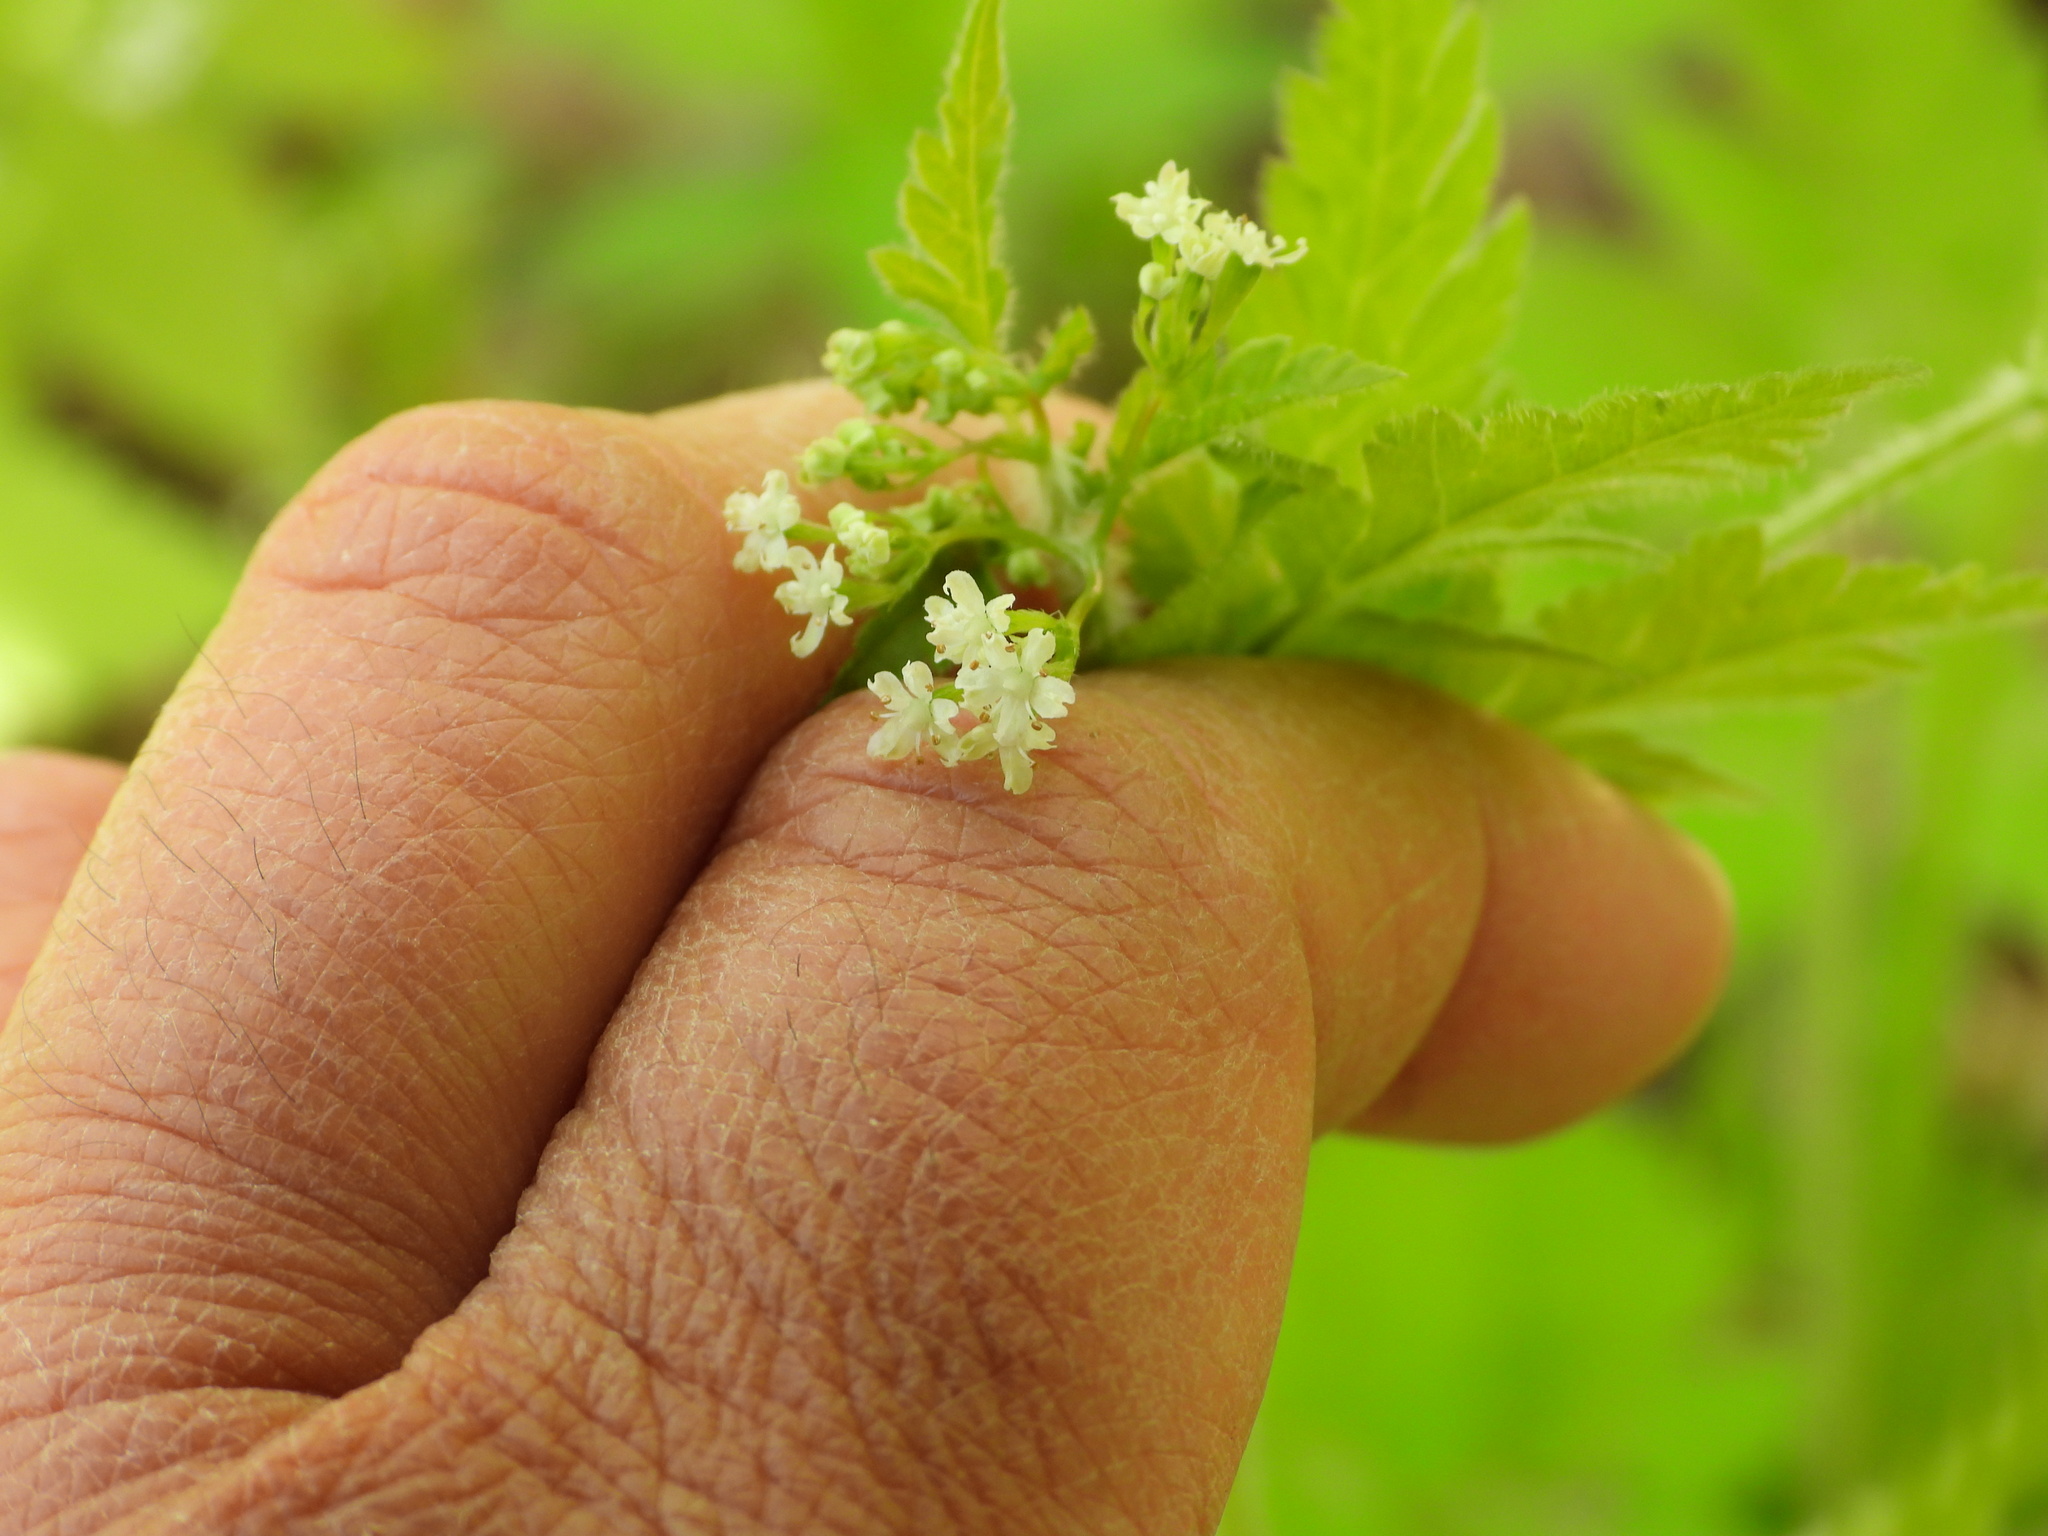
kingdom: Plantae
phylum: Tracheophyta
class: Magnoliopsida
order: Apiales
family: Apiaceae
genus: Osmorhiza
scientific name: Osmorhiza claytonii
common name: Hairy sweet cicely
